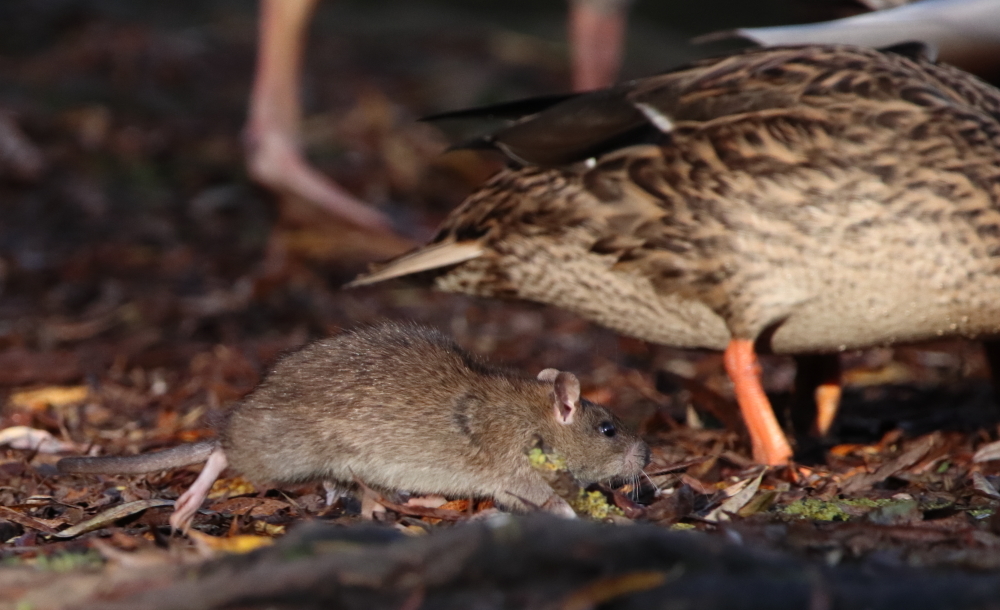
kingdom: Animalia
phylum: Chordata
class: Mammalia
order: Rodentia
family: Muridae
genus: Rattus
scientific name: Rattus norvegicus
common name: Brown rat
